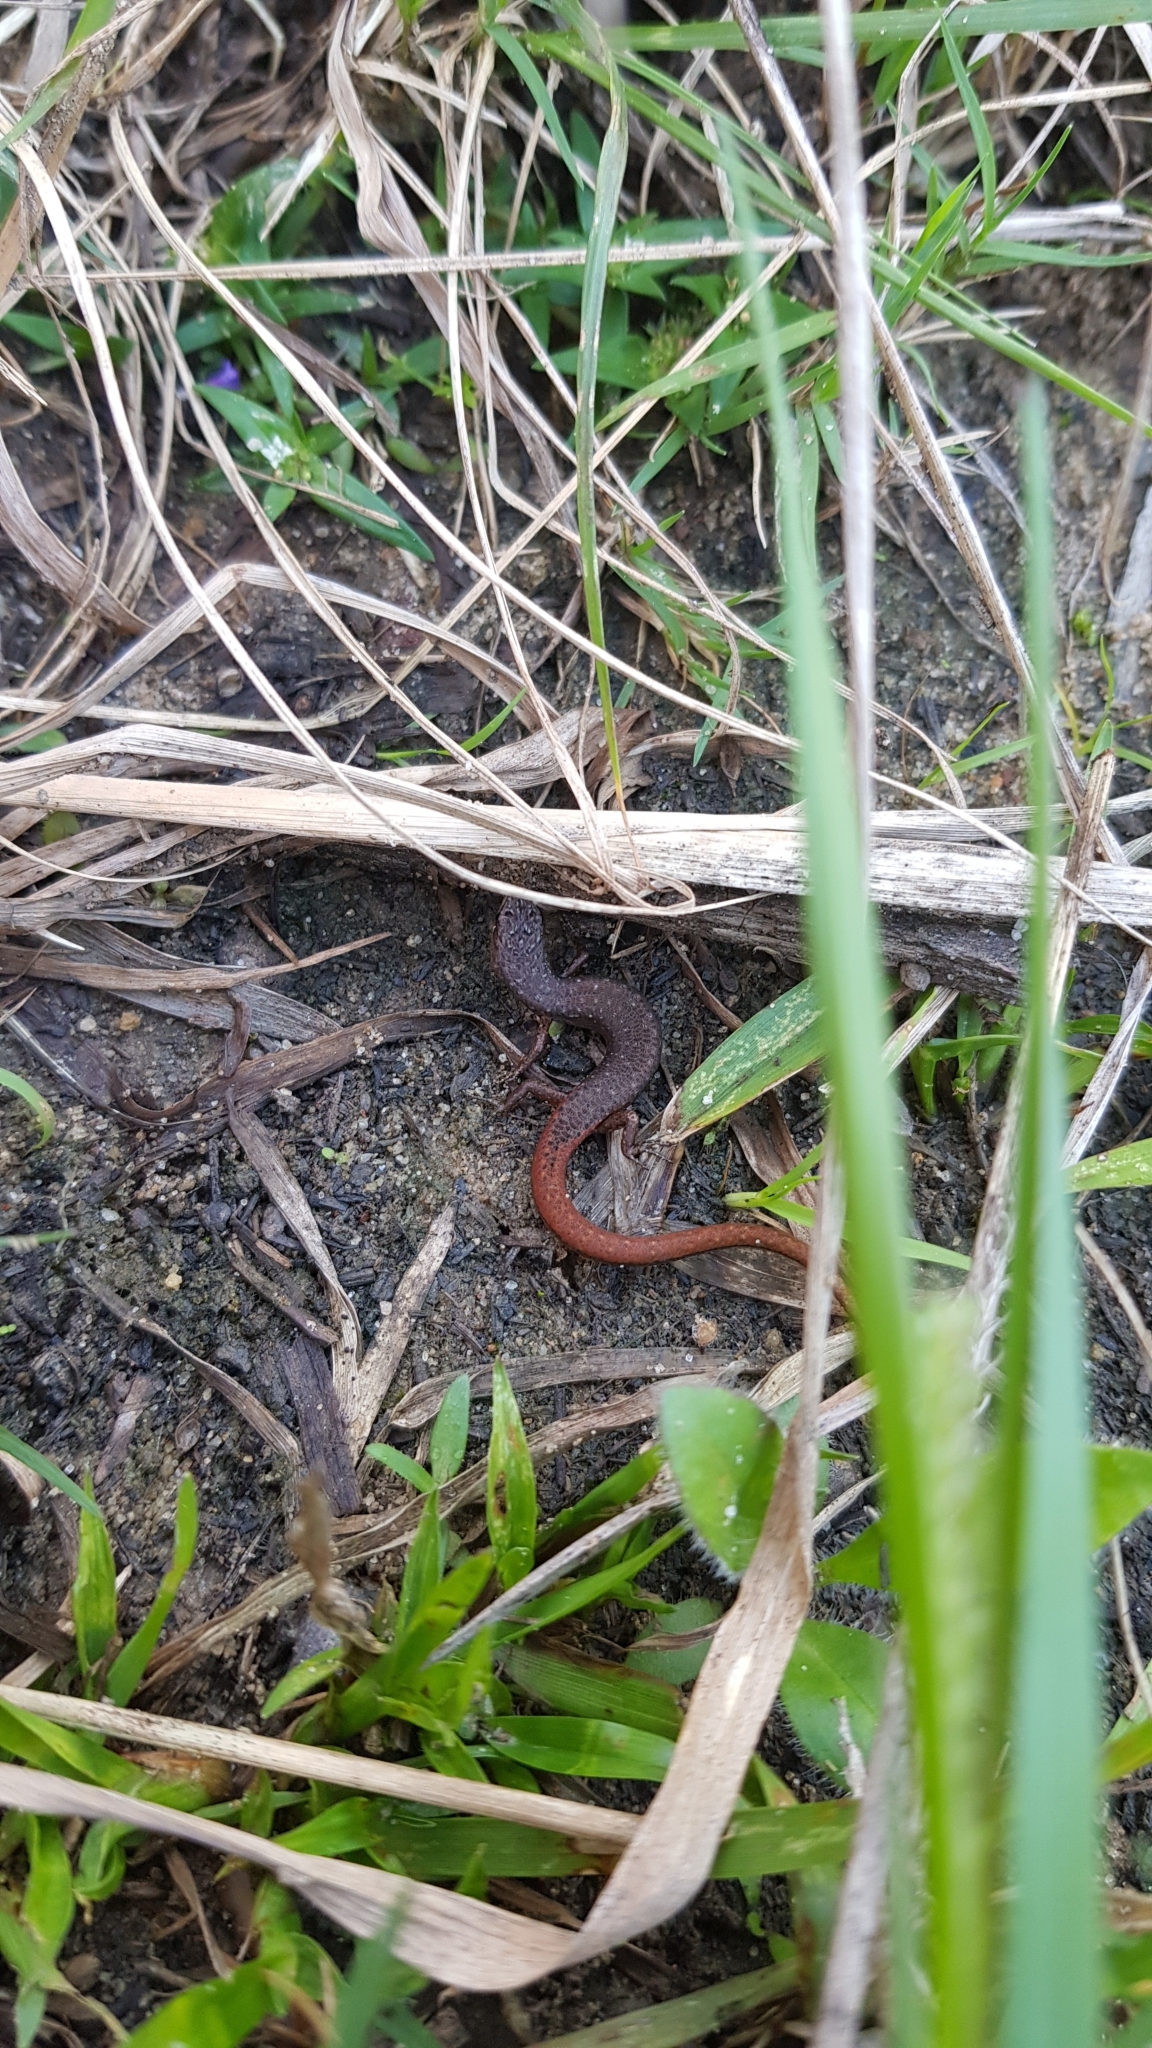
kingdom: Animalia
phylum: Chordata
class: Squamata
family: Scincidae
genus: Saproscincus
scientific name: Saproscincus mustelinus
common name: Southern weasel skink
